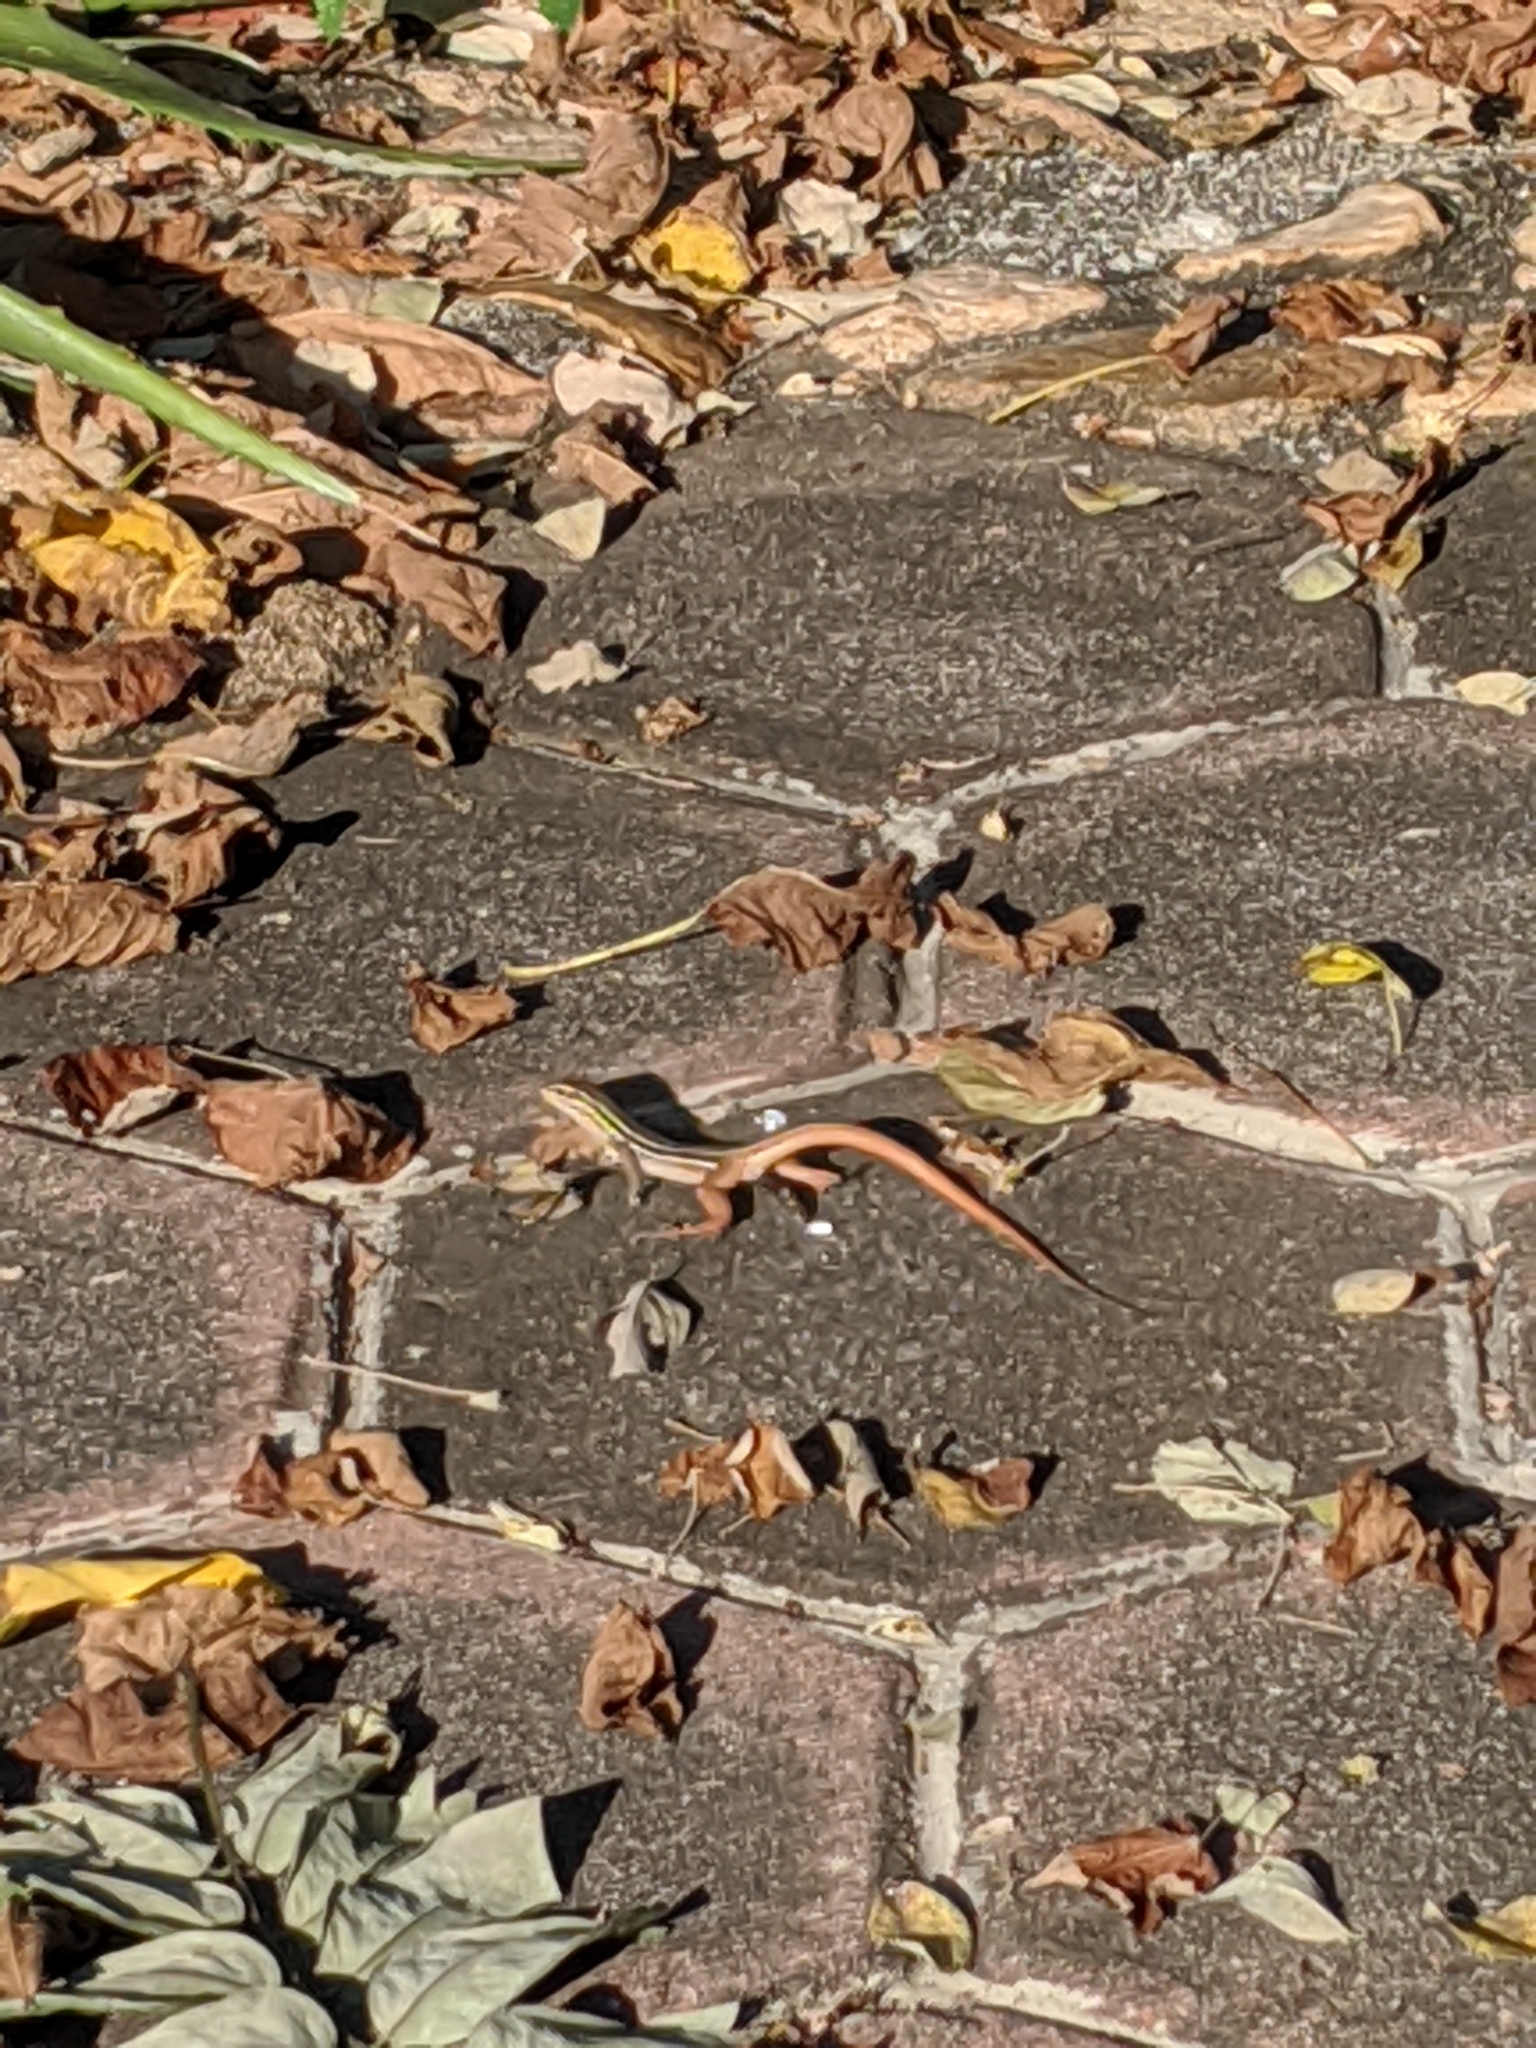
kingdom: Animalia
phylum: Chordata
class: Squamata
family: Teiidae
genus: Aspidoscelis
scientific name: Aspidoscelis communis
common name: Colima giant whiptail
